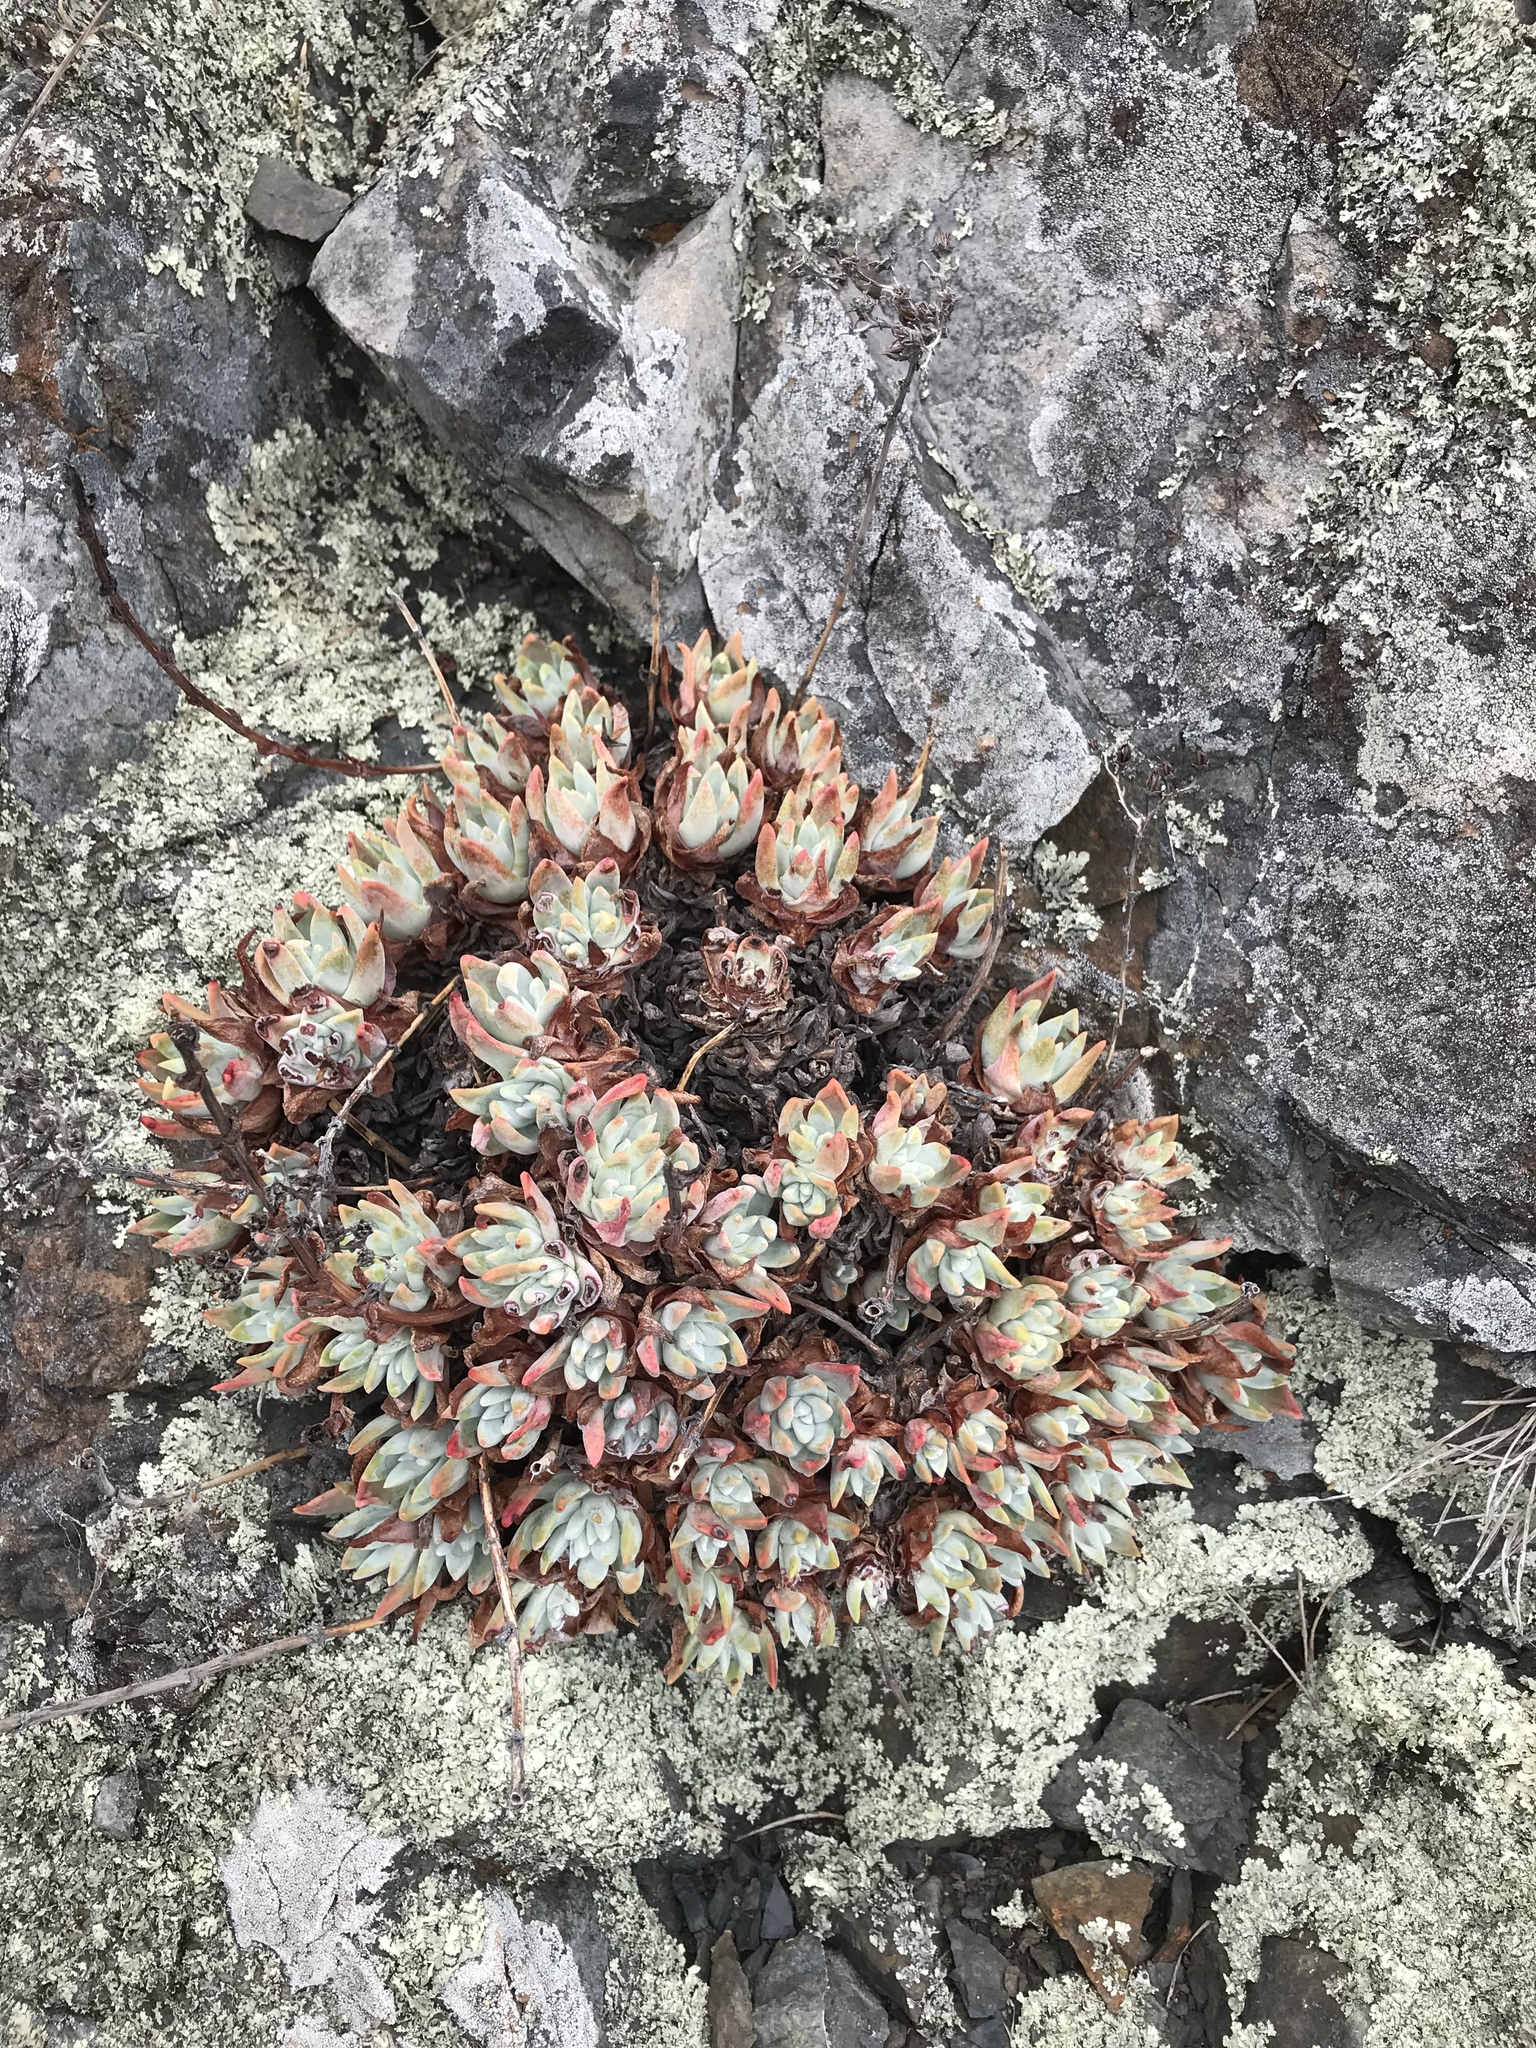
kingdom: Plantae
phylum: Tracheophyta
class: Magnoliopsida
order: Saxifragales
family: Crassulaceae
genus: Dudleya
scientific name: Dudleya farinosa
